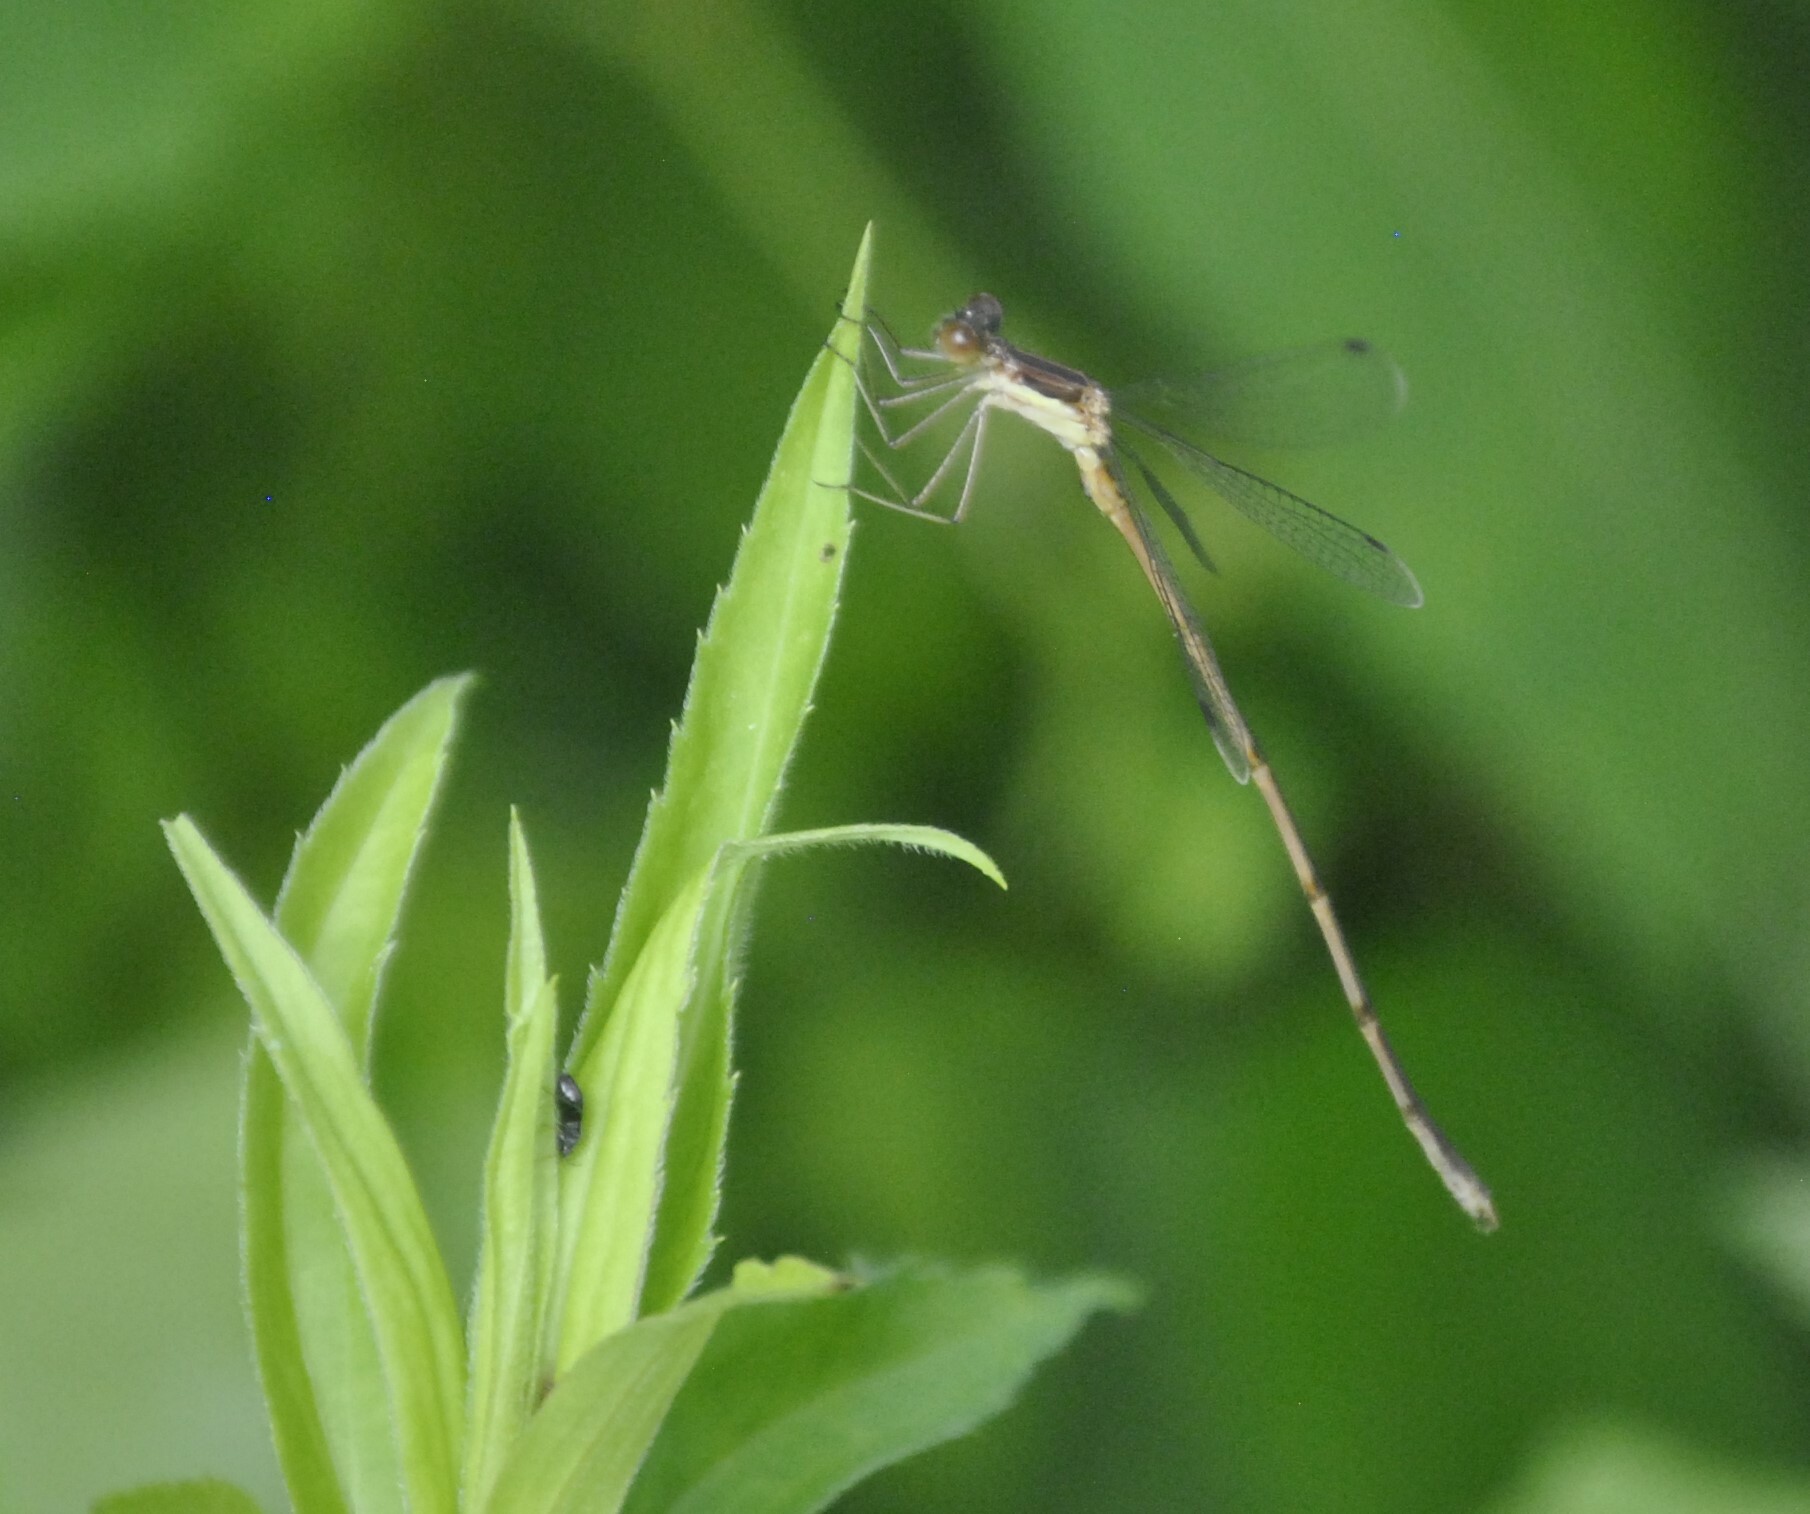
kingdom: Animalia
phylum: Arthropoda
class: Insecta
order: Odonata
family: Lestidae
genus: Lestes
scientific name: Lestes rectangularis
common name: Slender spreadwing
